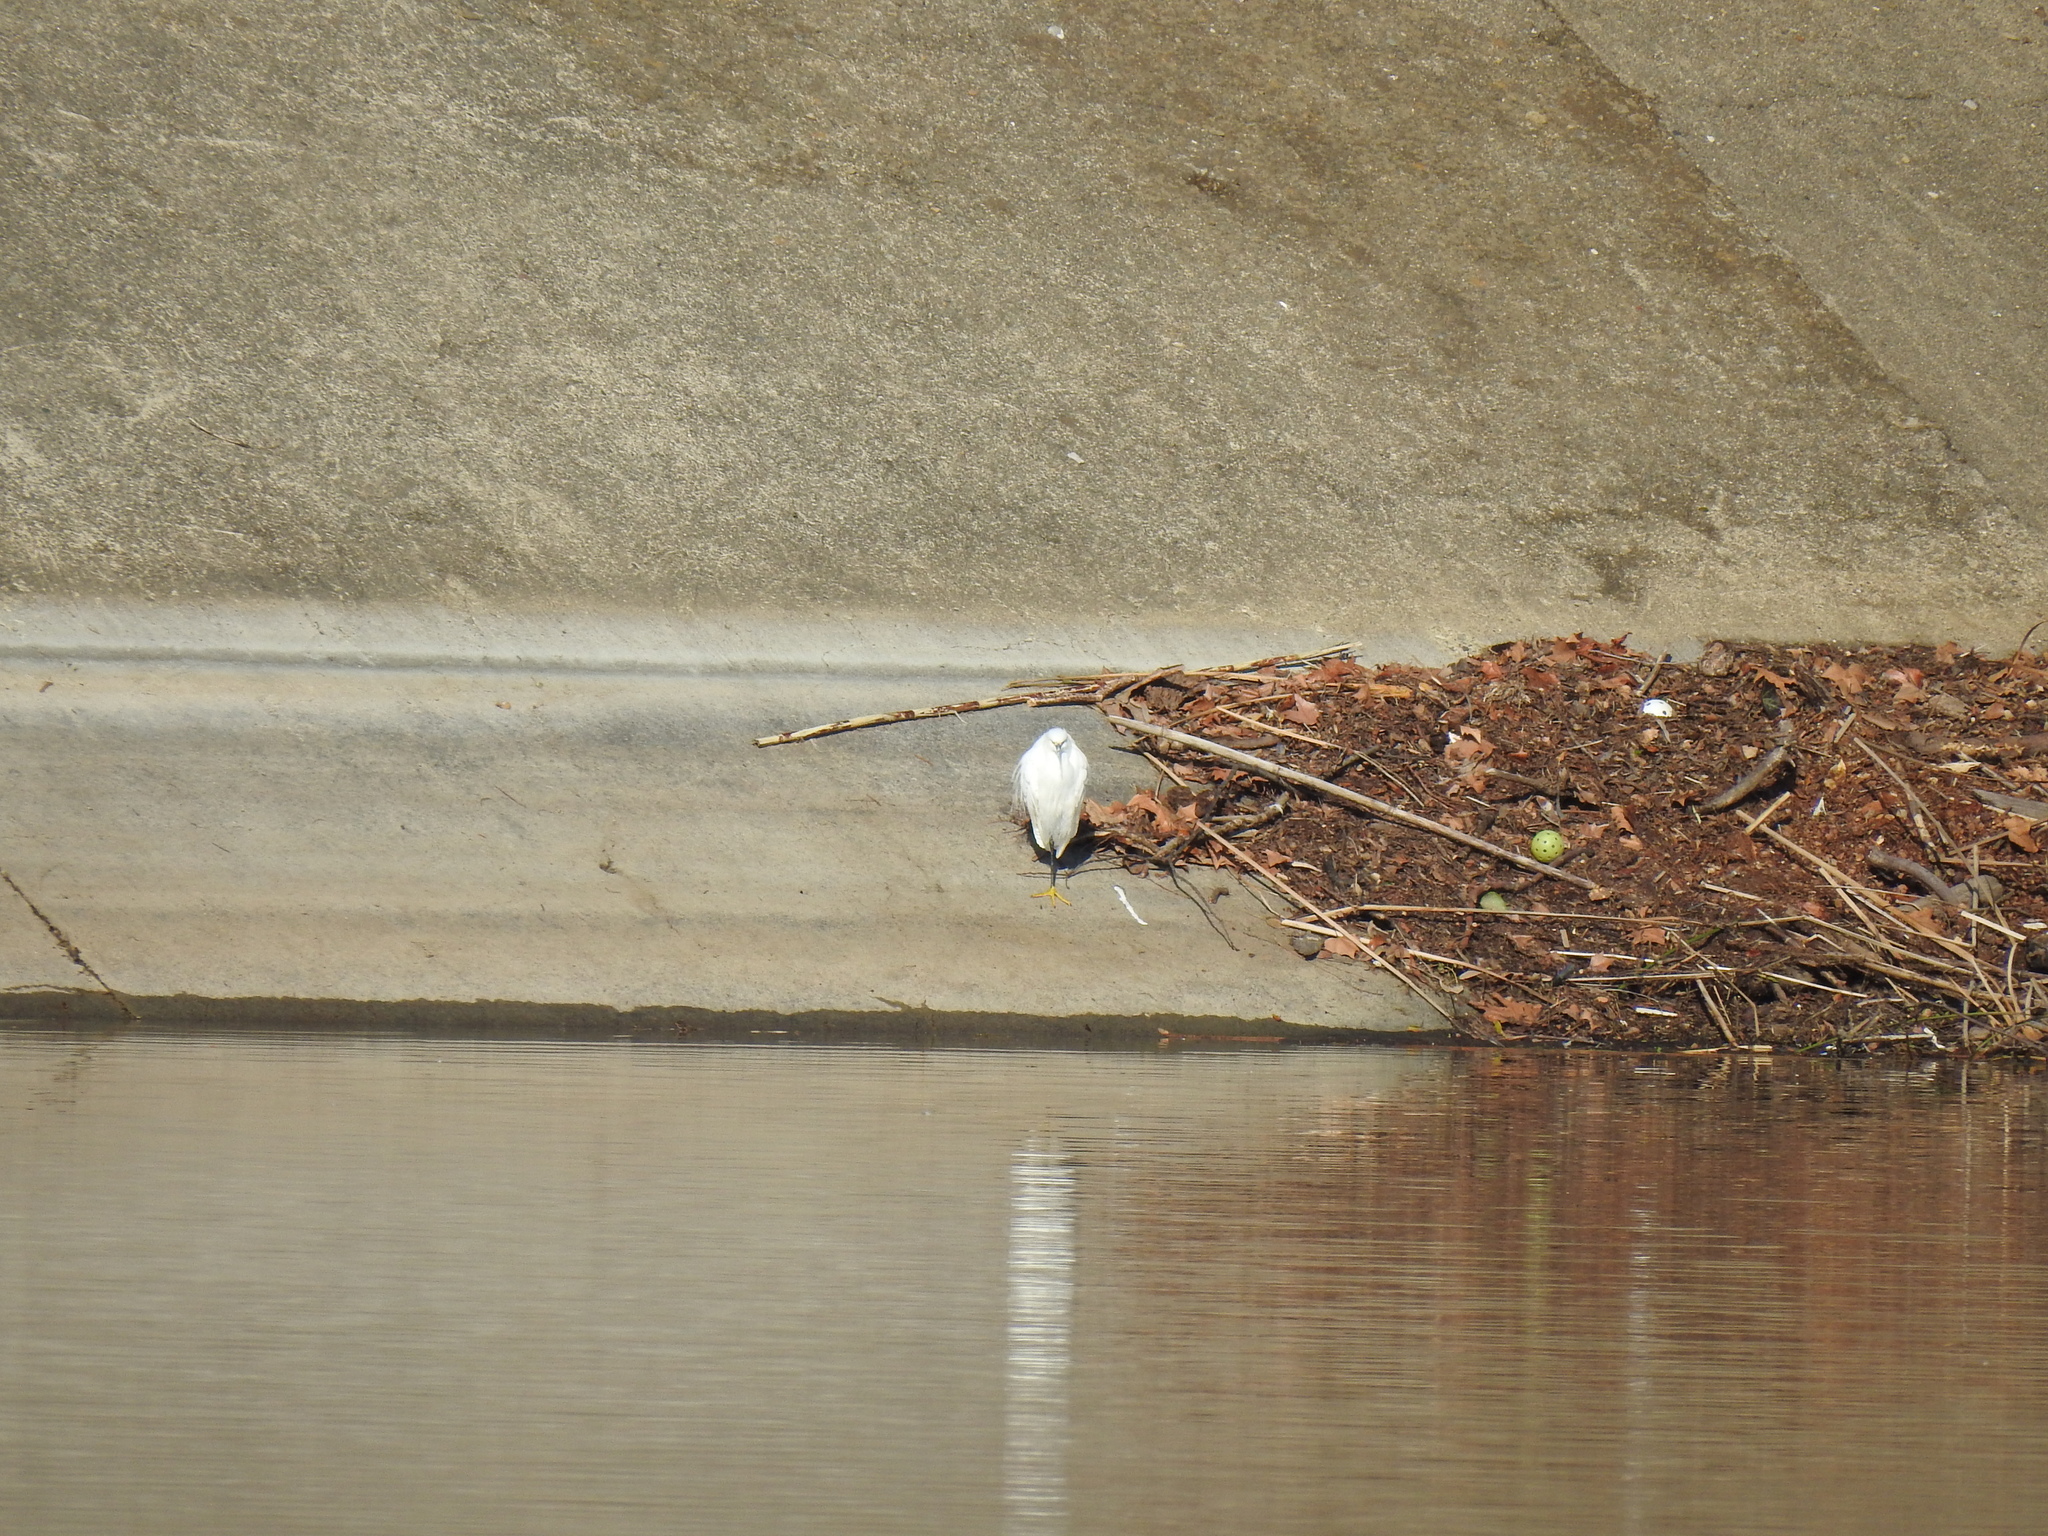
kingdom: Animalia
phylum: Chordata
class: Aves
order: Pelecaniformes
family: Ardeidae
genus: Egretta
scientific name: Egretta thula
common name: Snowy egret
